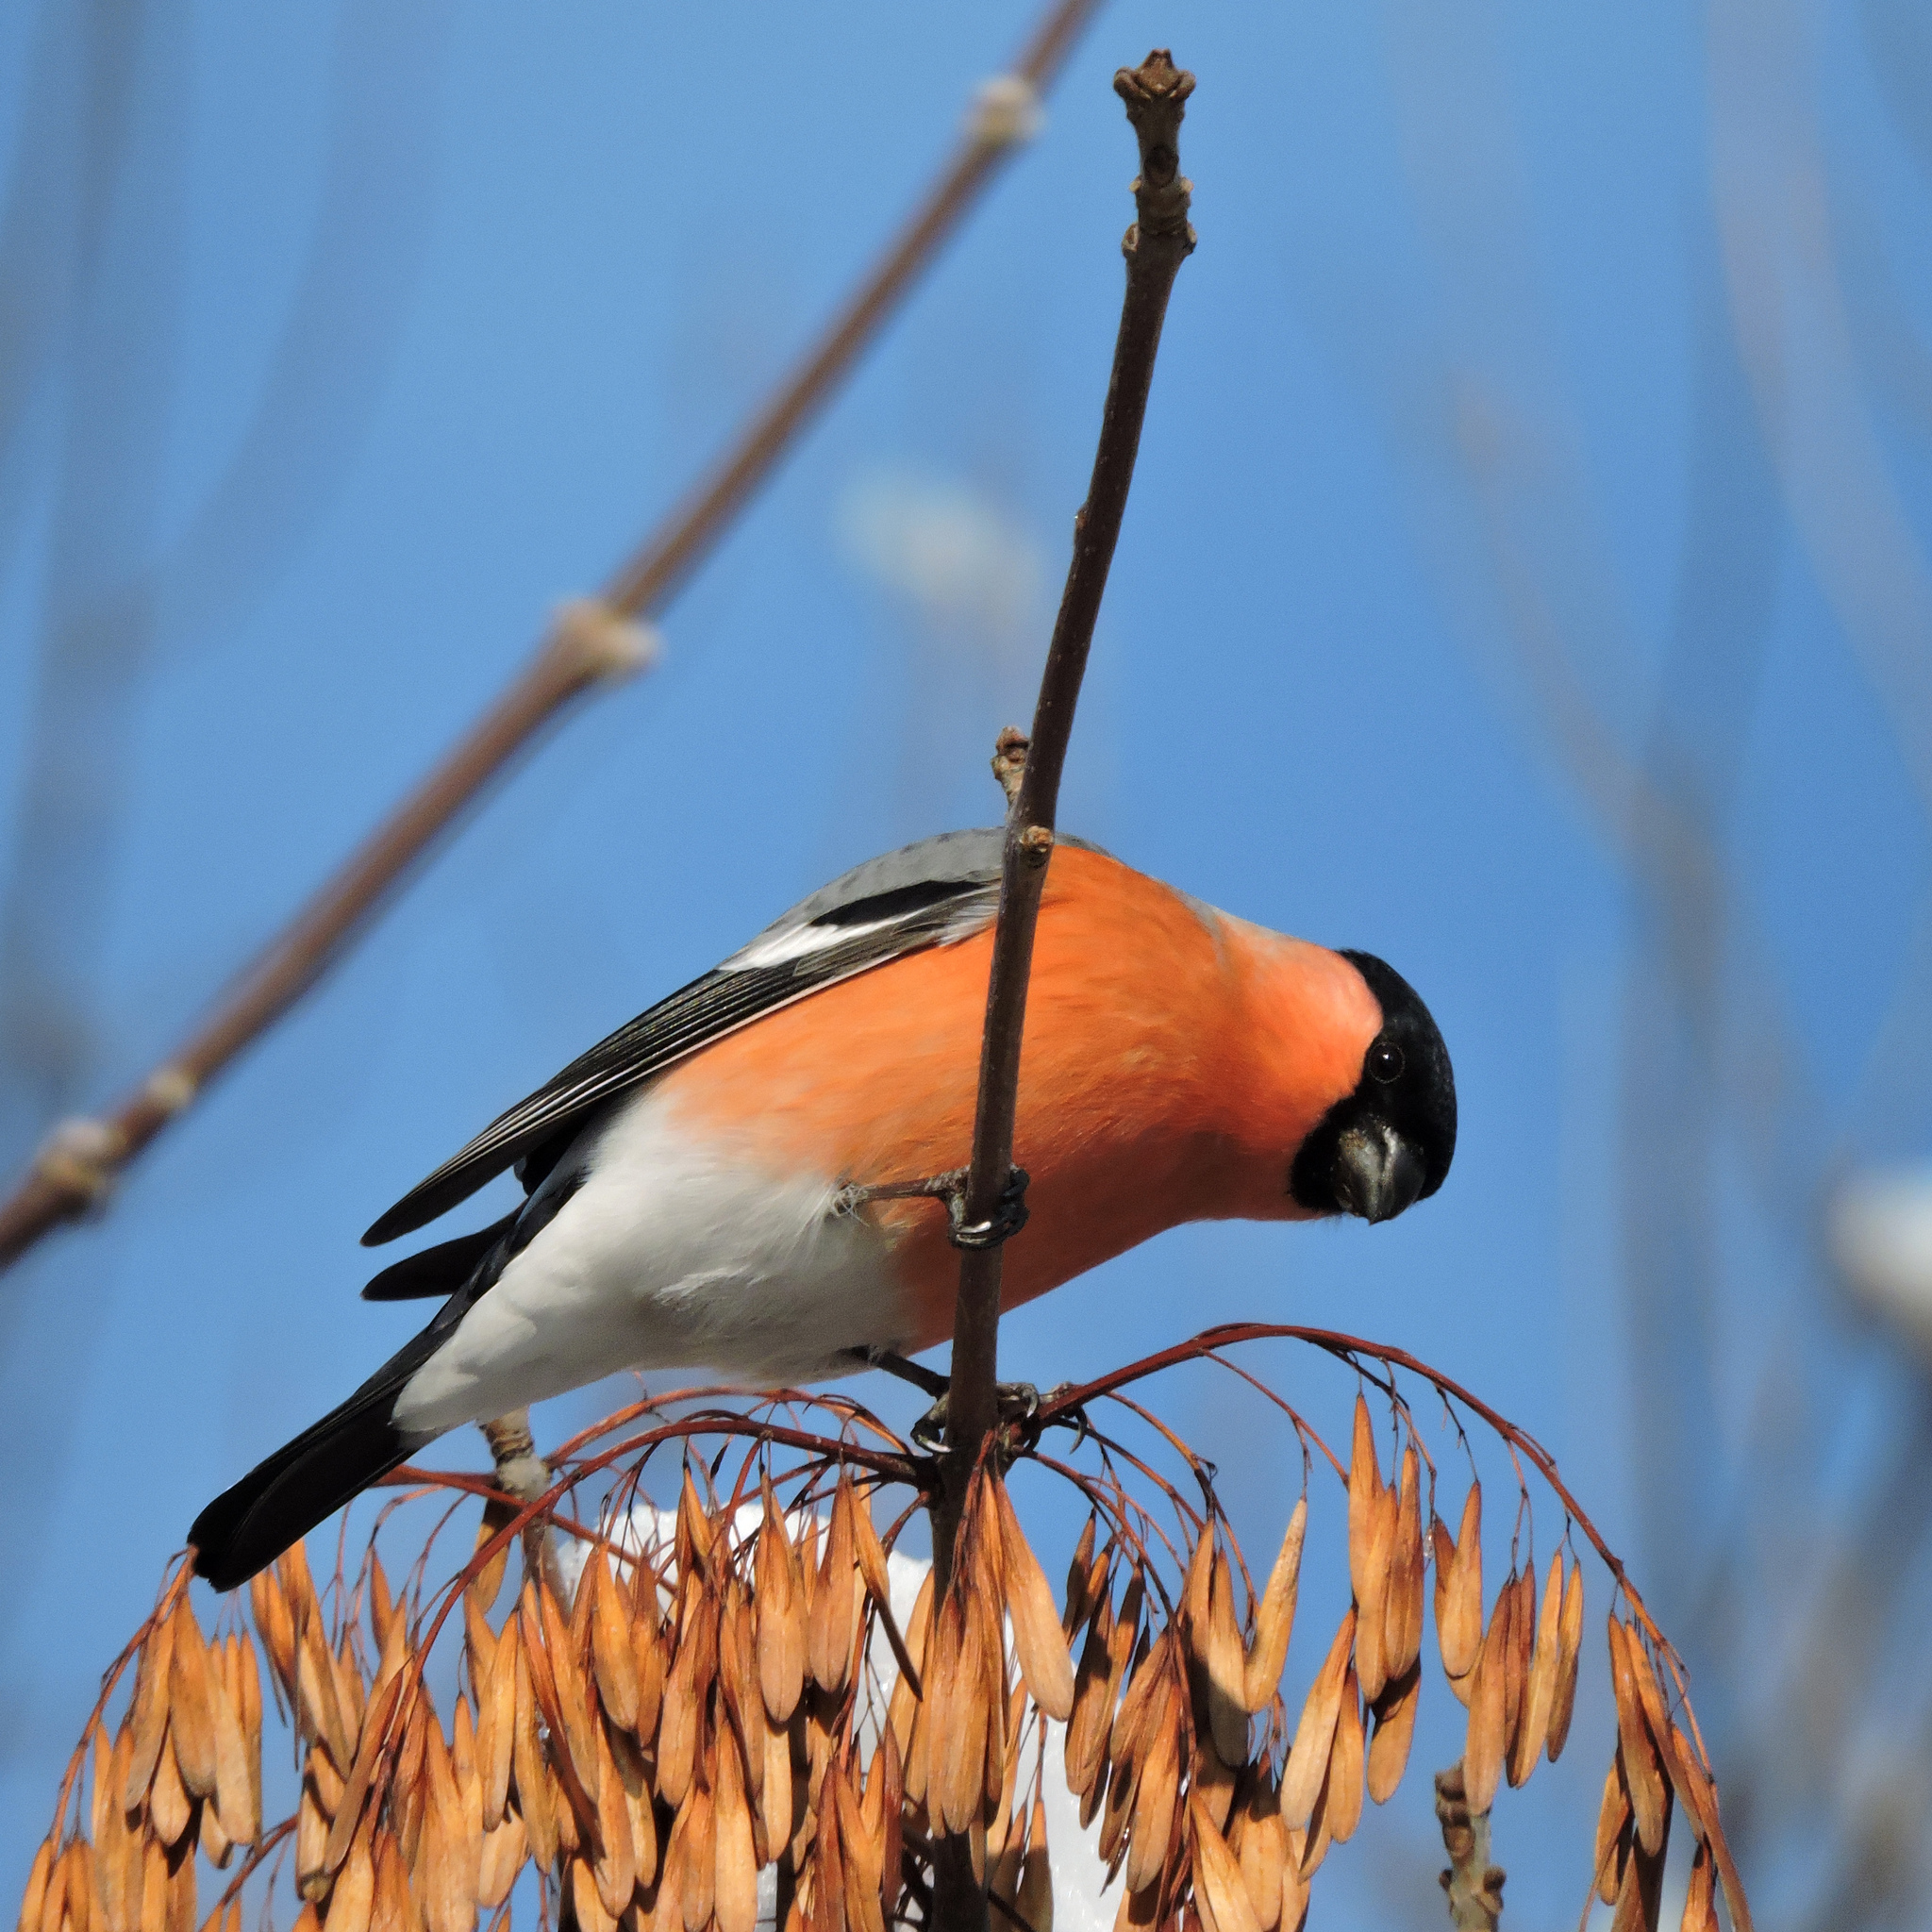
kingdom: Animalia
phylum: Chordata
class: Aves
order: Passeriformes
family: Fringillidae
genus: Pyrrhula
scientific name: Pyrrhula pyrrhula
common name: Eurasian bullfinch
